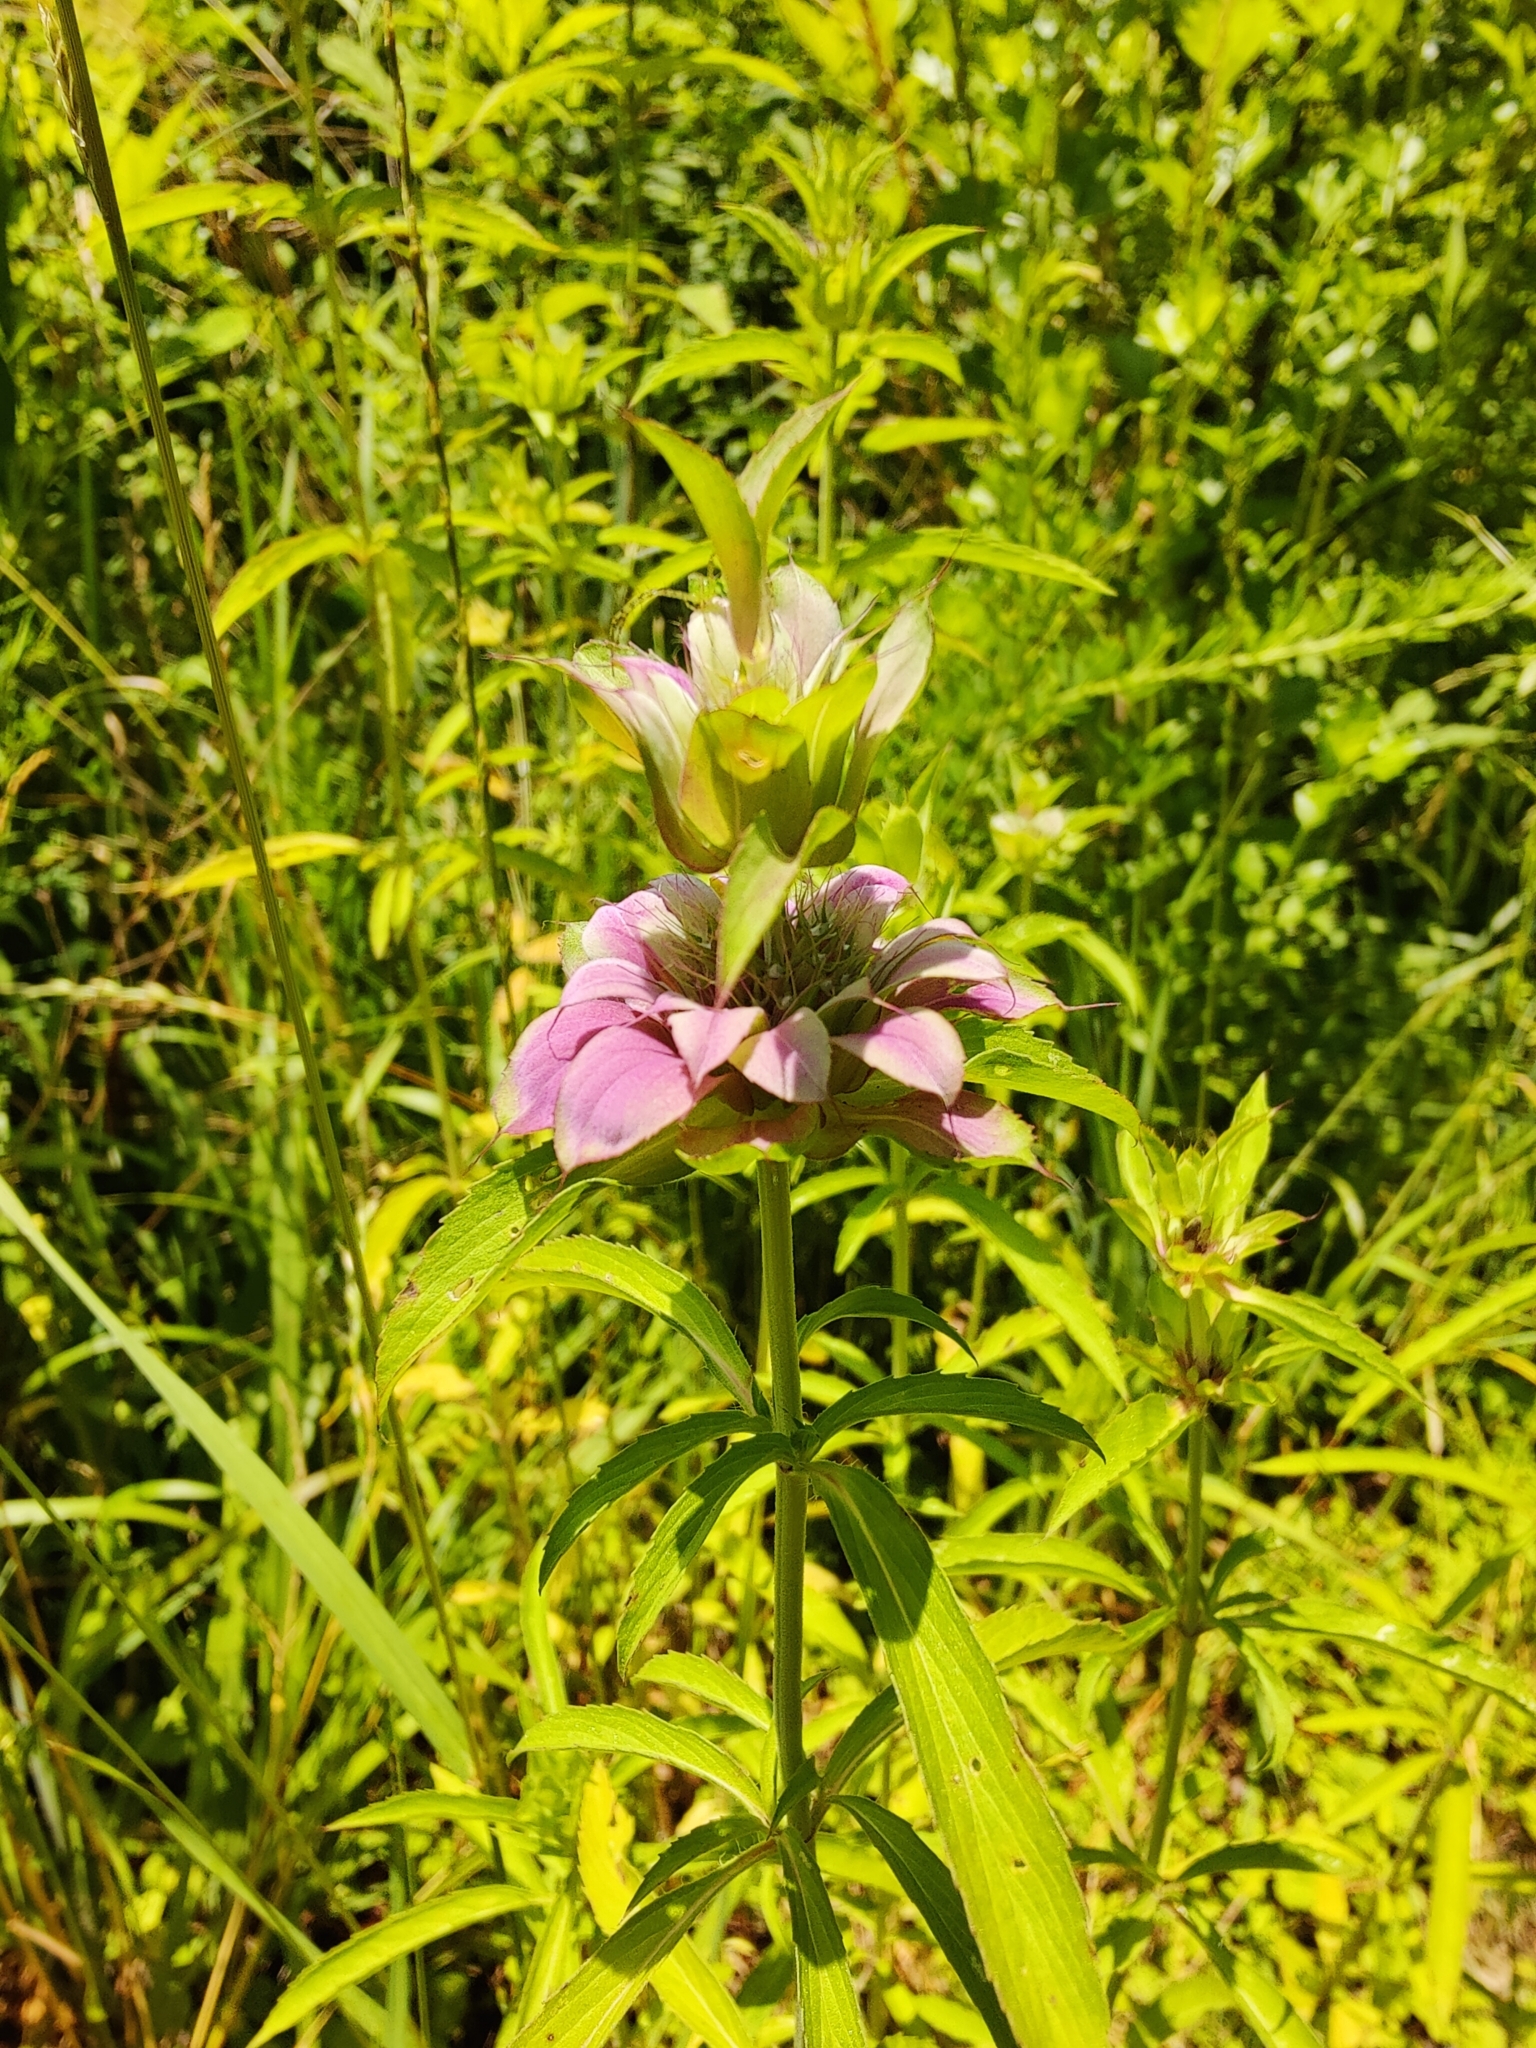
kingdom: Plantae
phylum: Tracheophyta
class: Magnoliopsida
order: Lamiales
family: Lamiaceae
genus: Monarda
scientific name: Monarda citriodora
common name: Lemon beebalm
